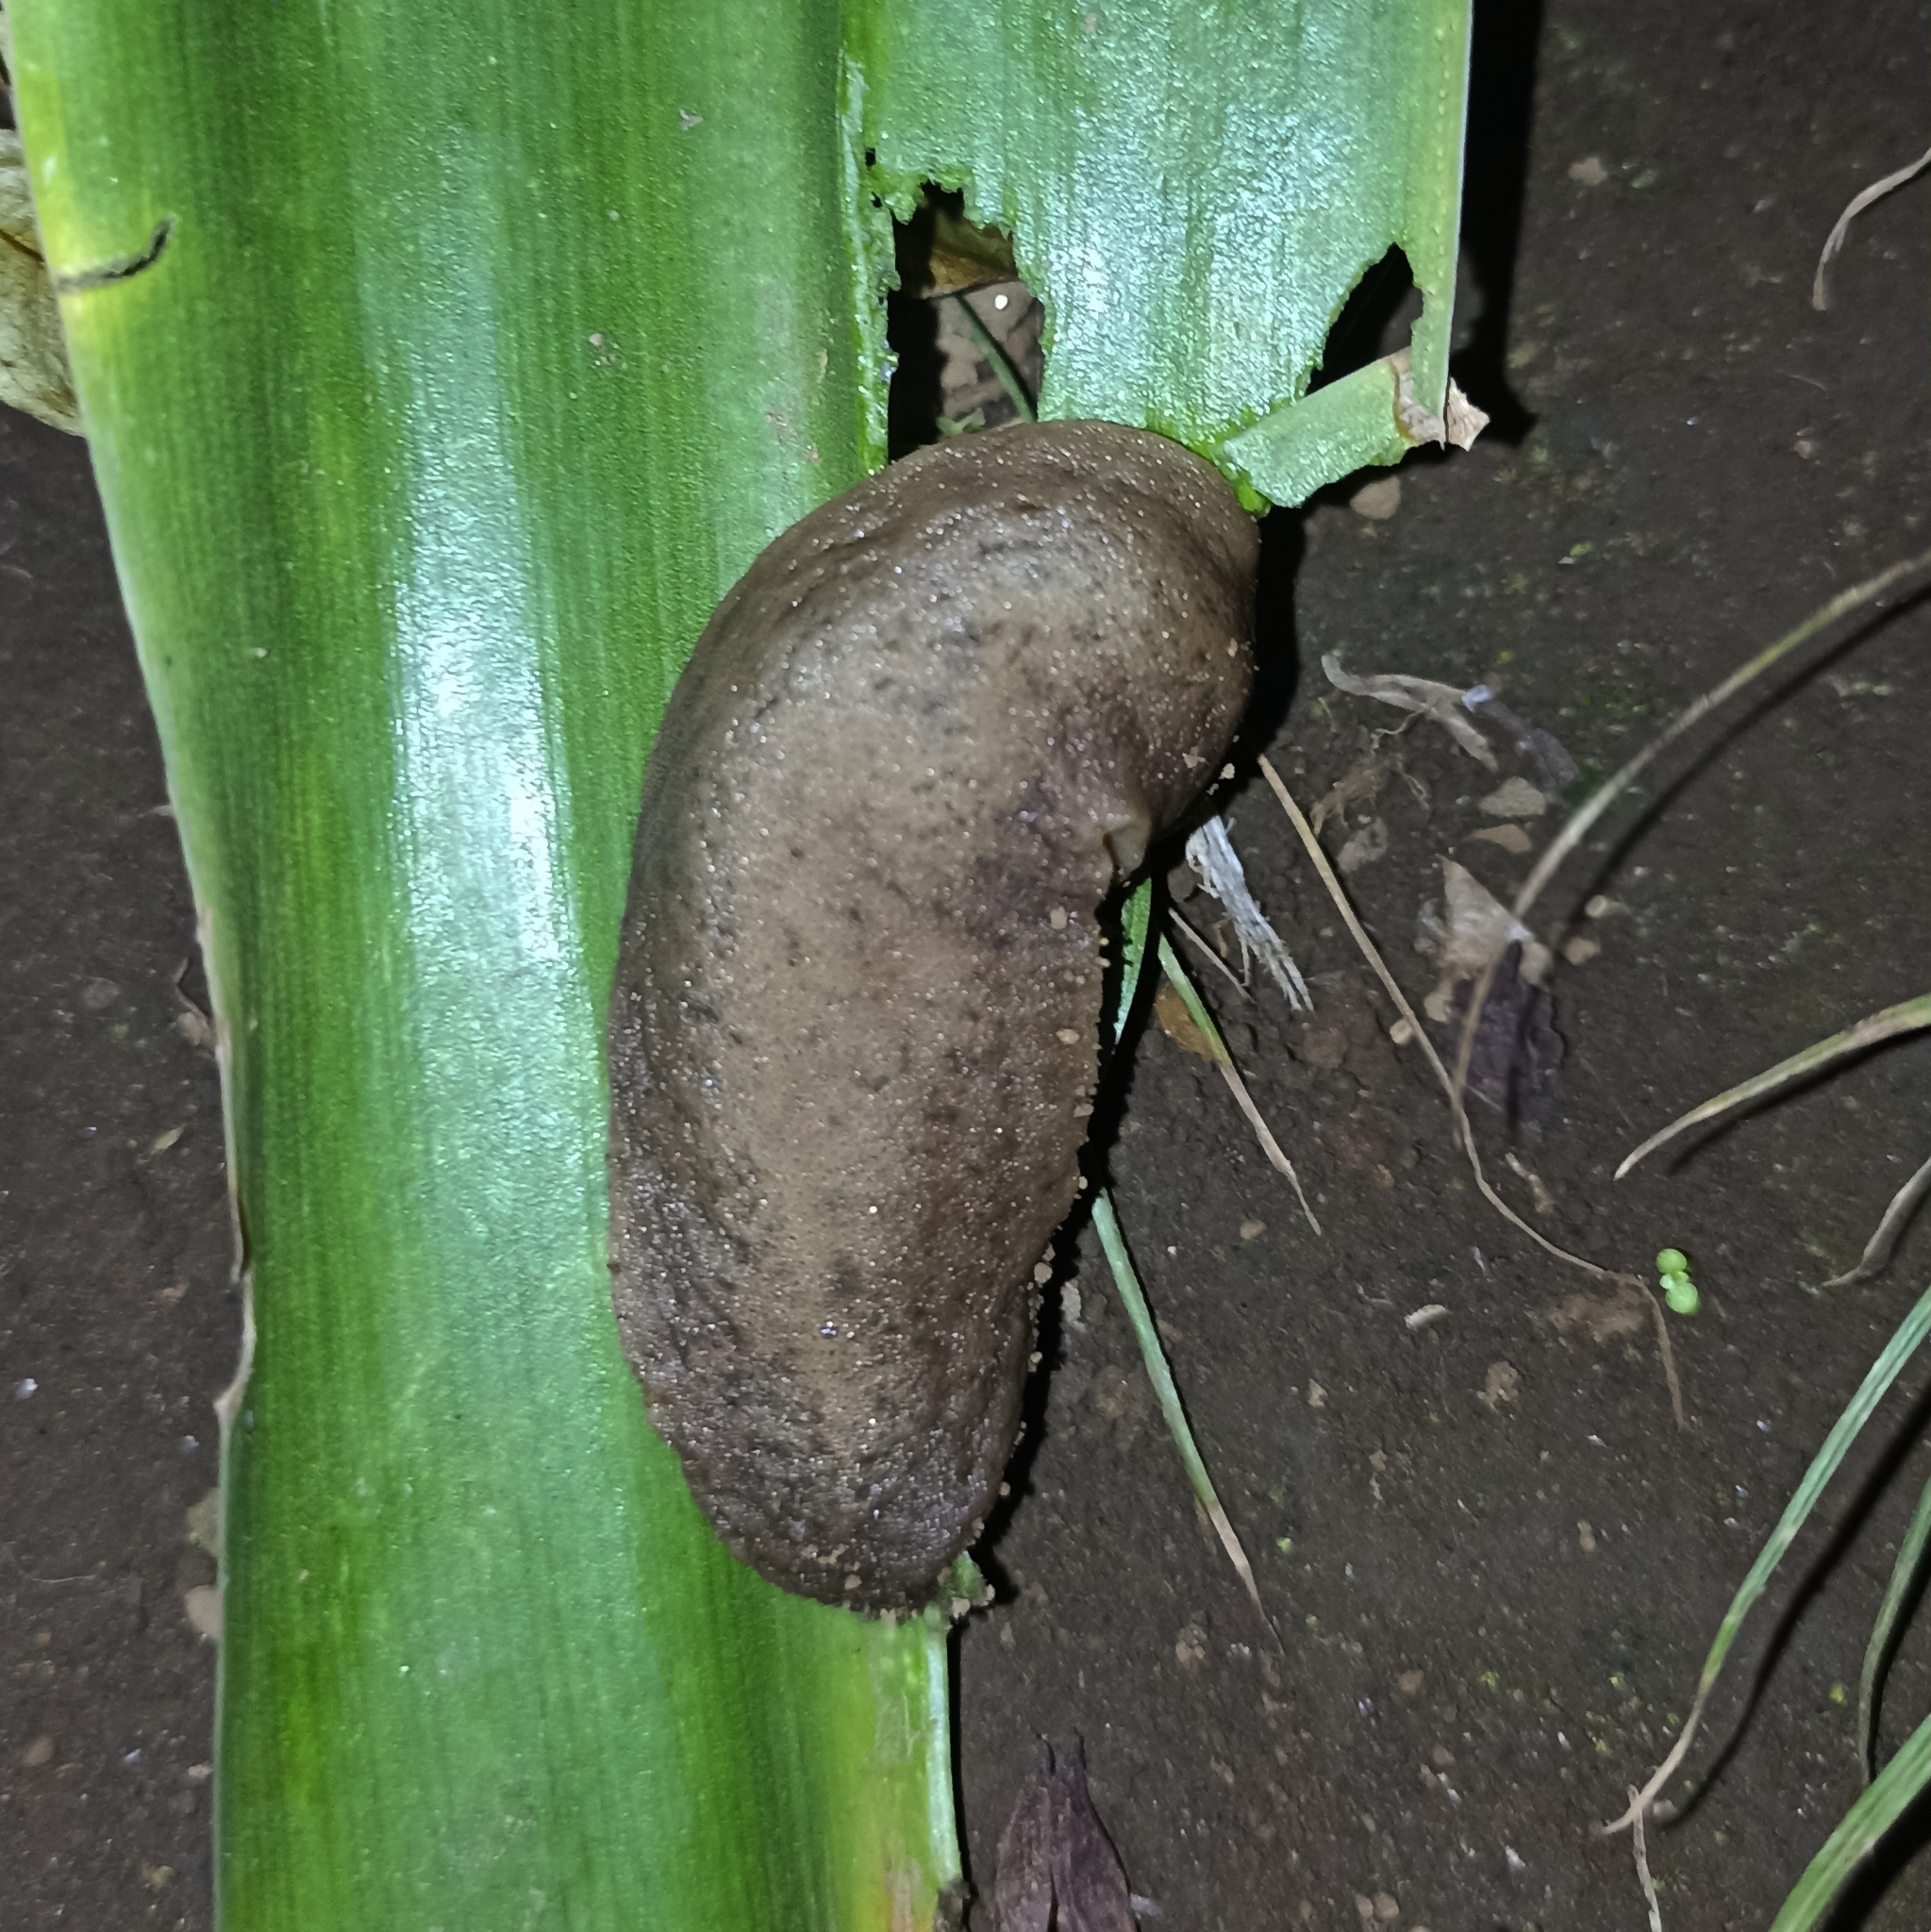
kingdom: Animalia
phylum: Mollusca
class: Gastropoda
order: Systellommatophora
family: Veronicellidae
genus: Sarasinula
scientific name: Sarasinula plebeia
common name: Caribbean leatherleaf
